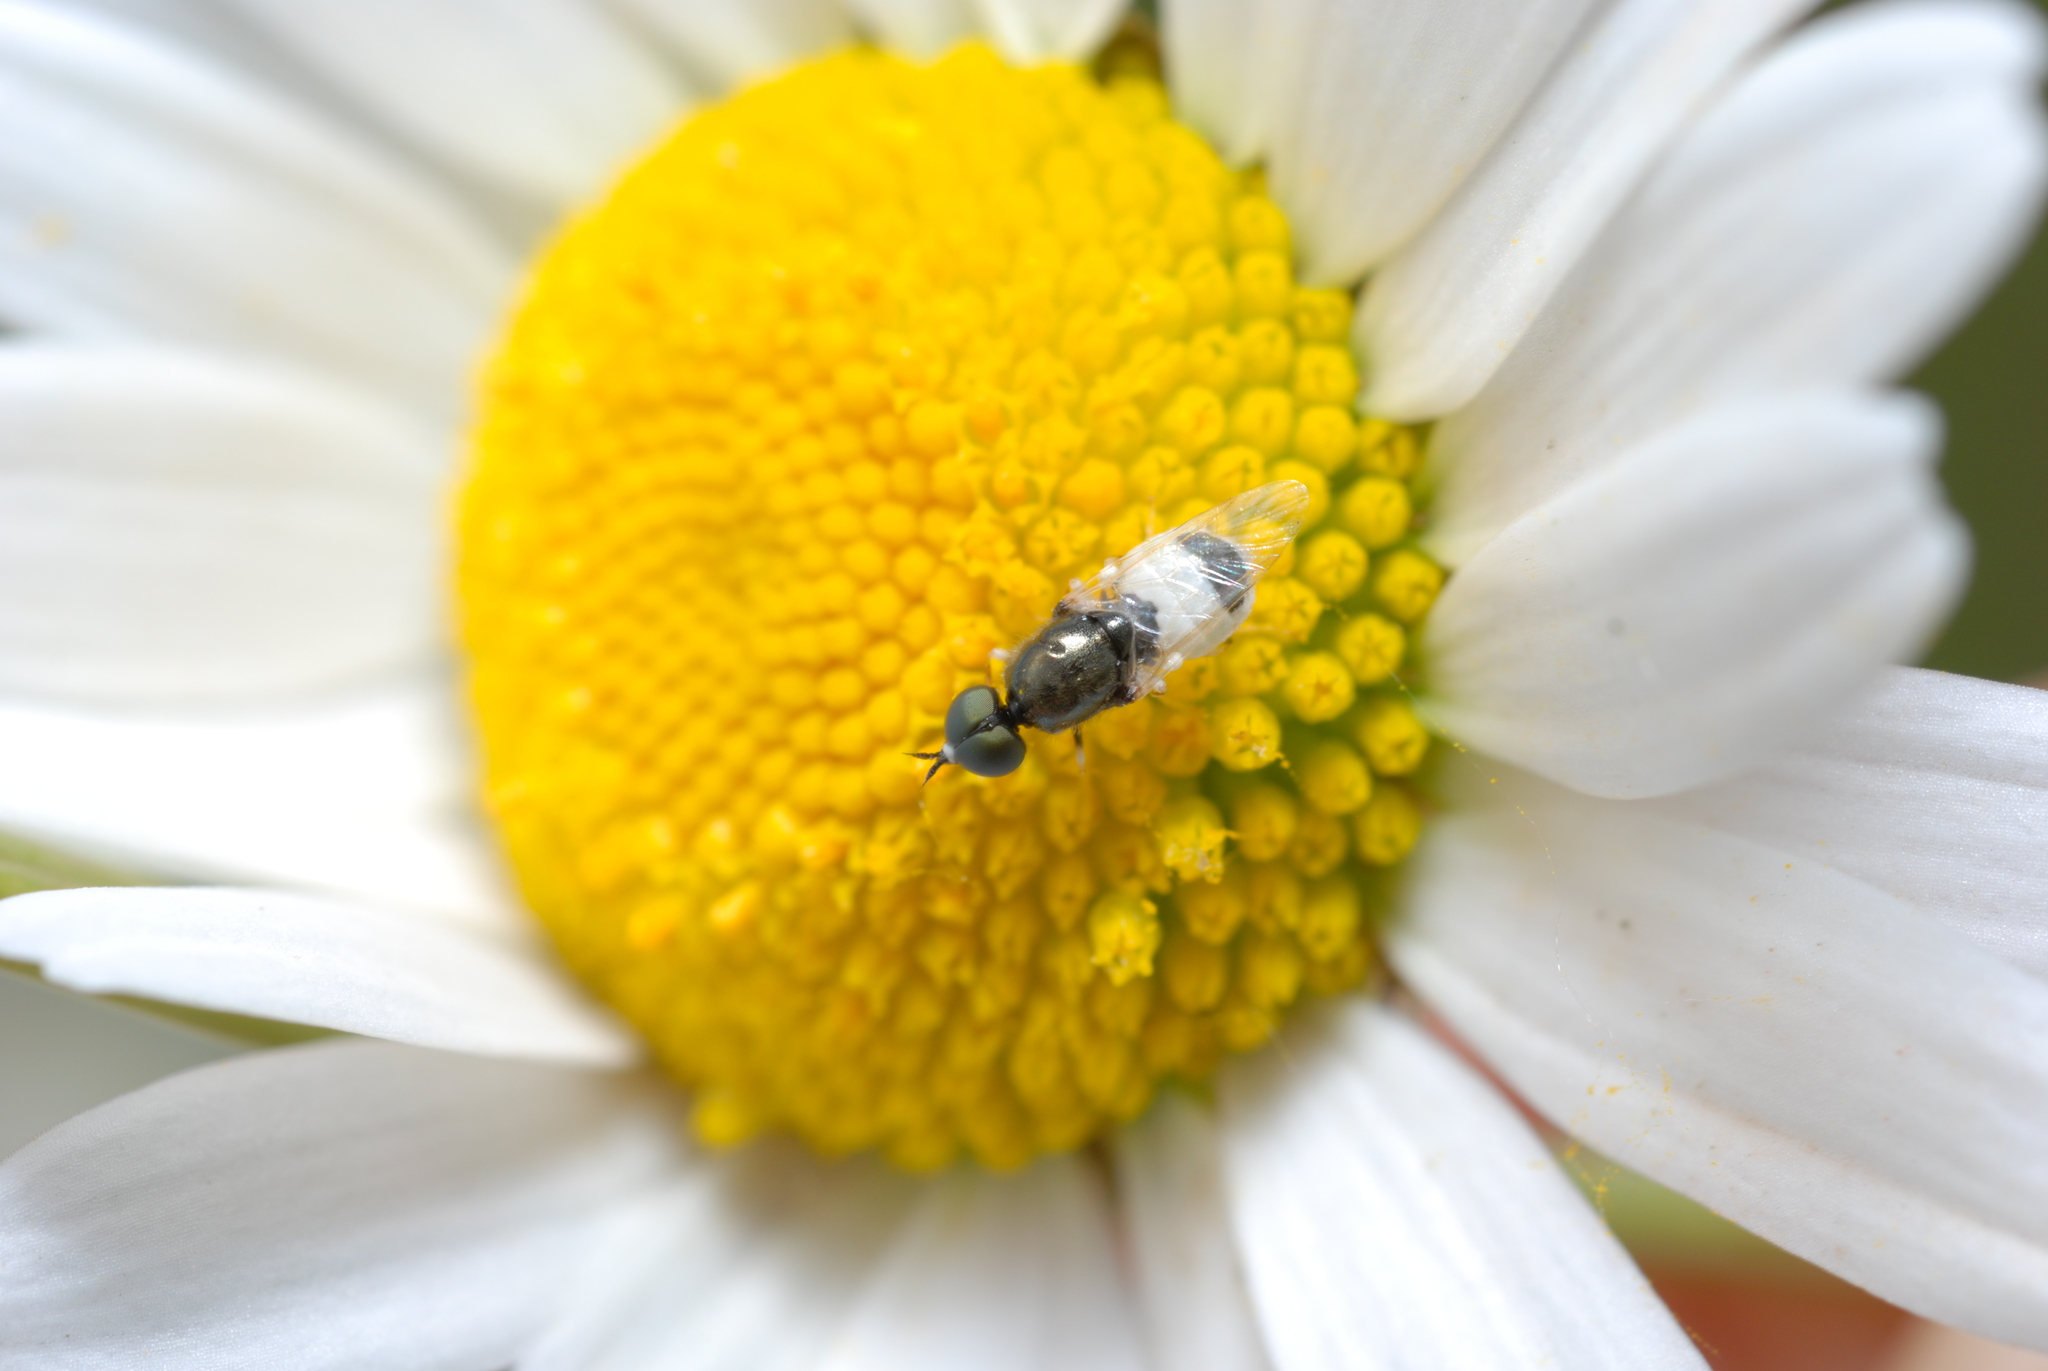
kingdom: Animalia
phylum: Arthropoda
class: Insecta
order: Diptera
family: Stratiomyidae
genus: Nemotelus
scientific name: Nemotelus pantherina
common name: Fen snout
